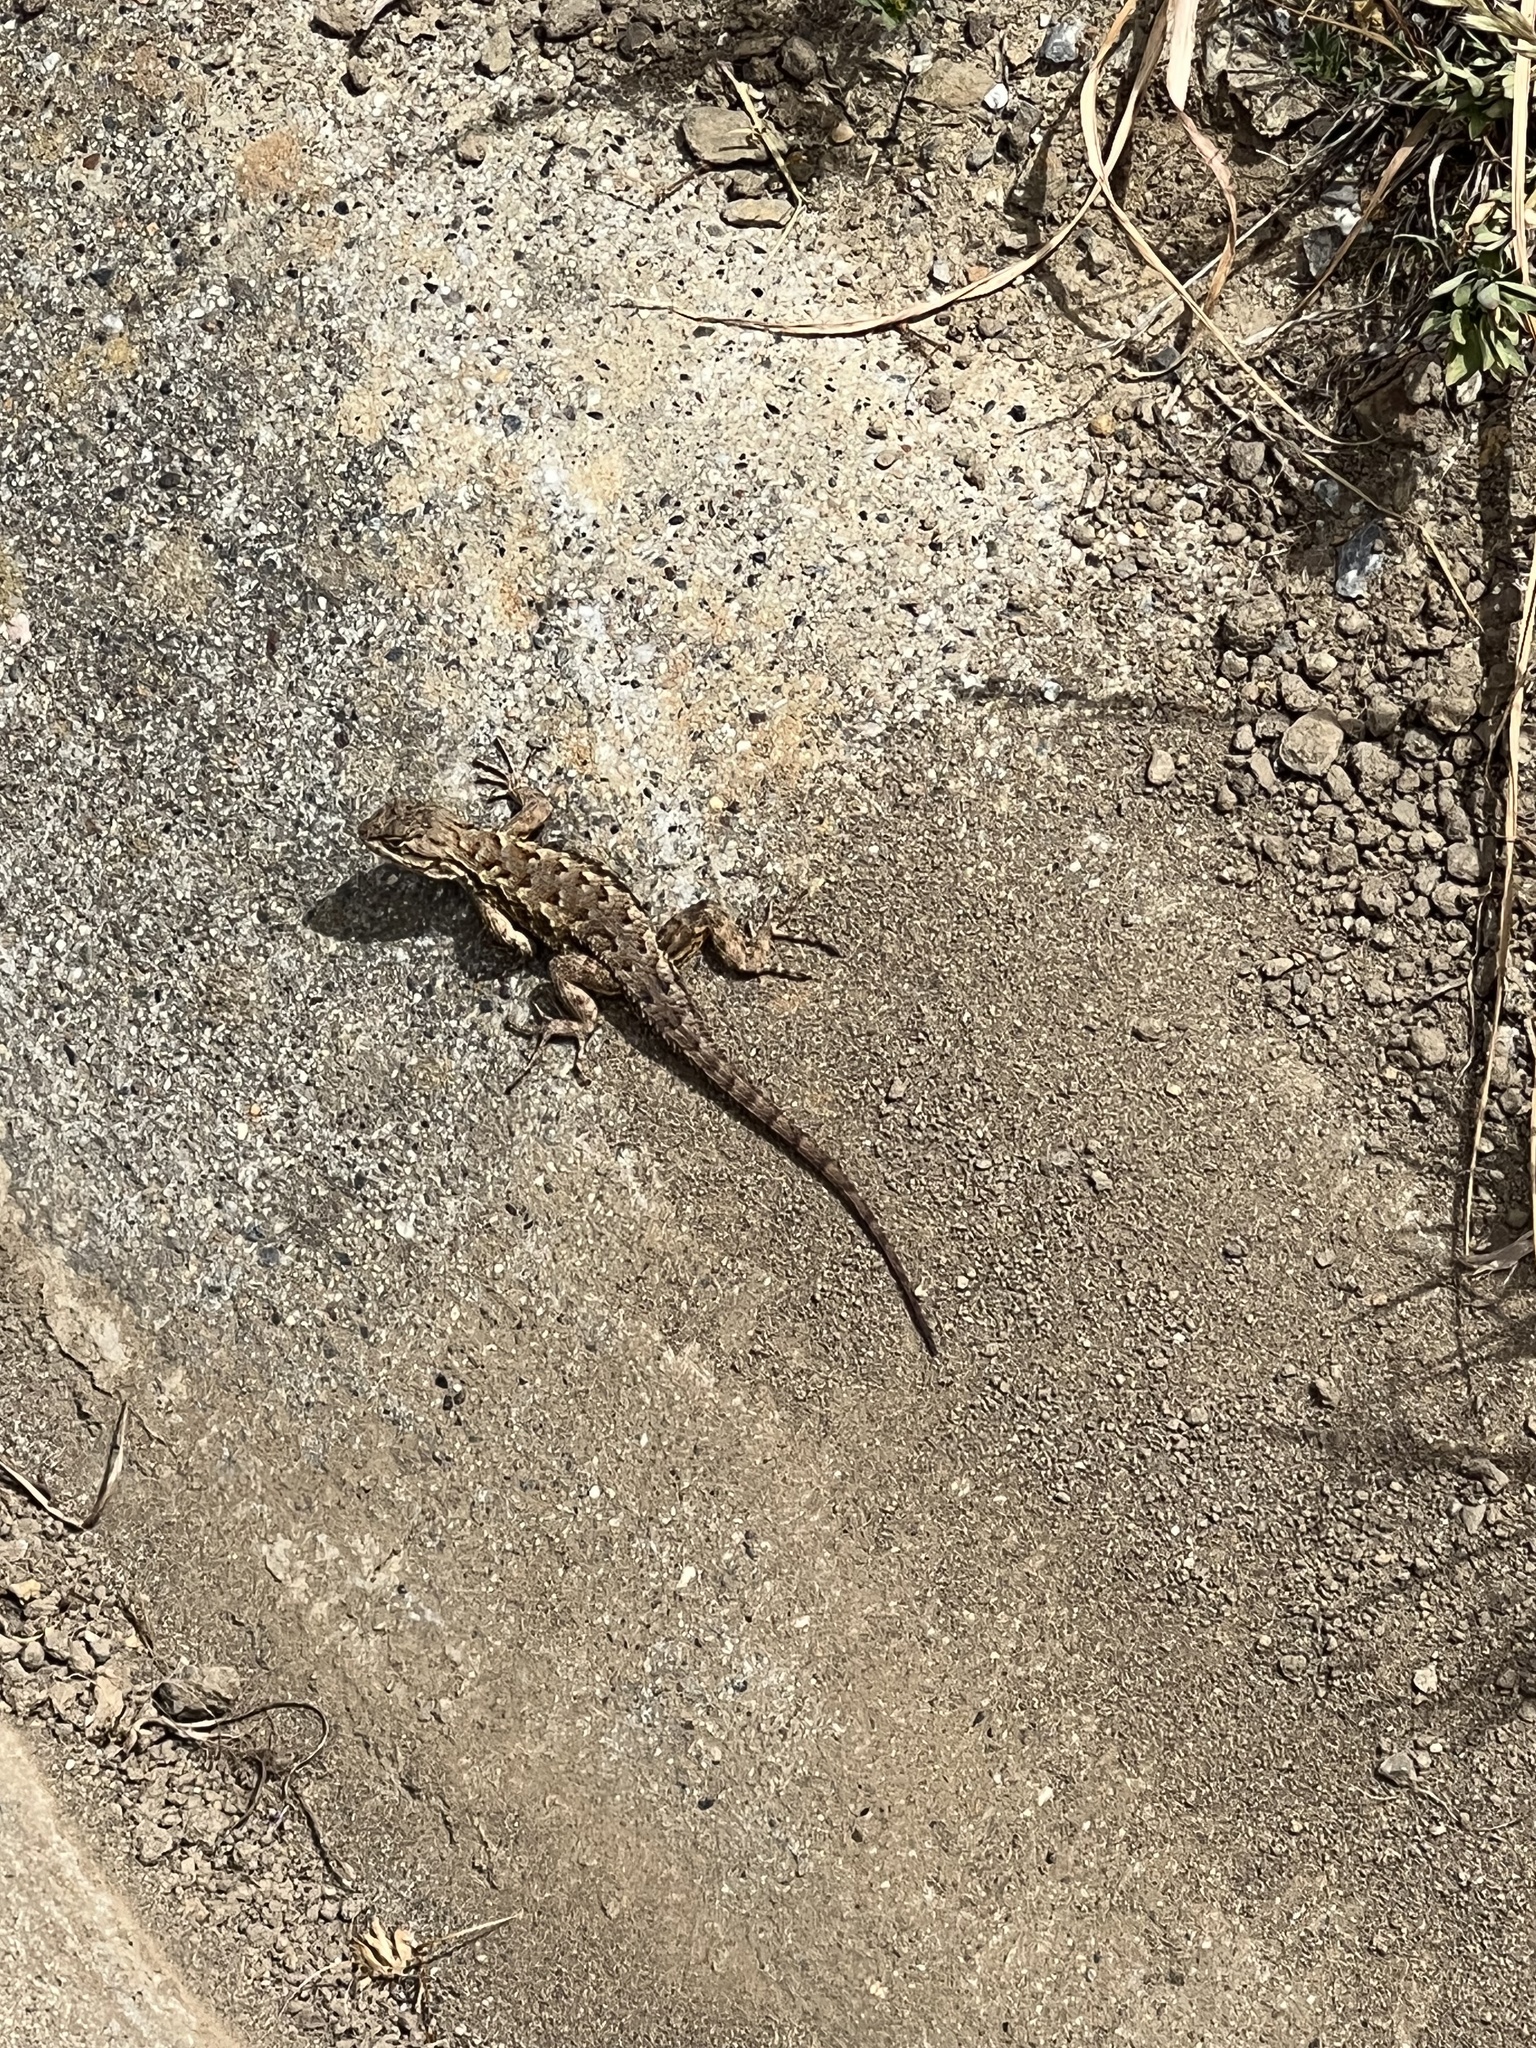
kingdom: Animalia
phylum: Chordata
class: Squamata
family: Phrynosomatidae
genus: Sceloporus
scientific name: Sceloporus occidentalis
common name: Western fence lizard
